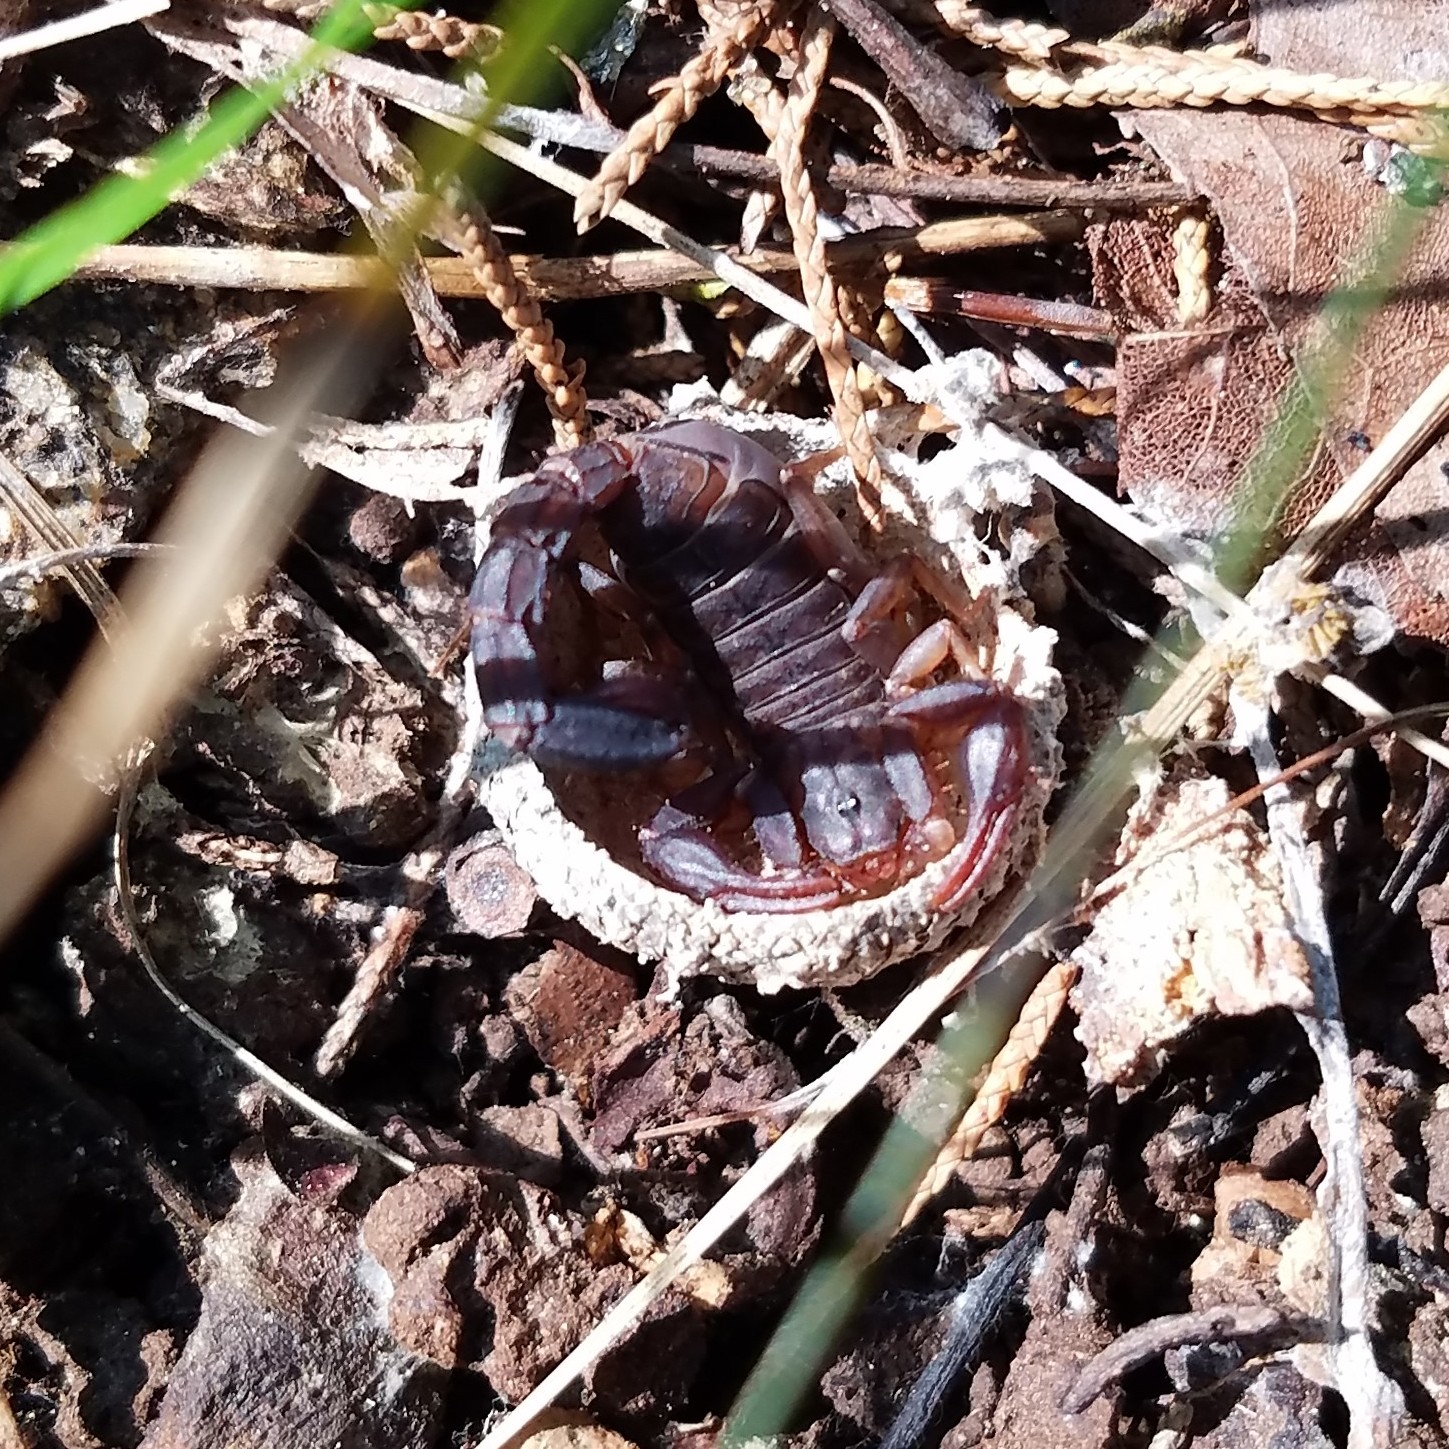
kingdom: Animalia
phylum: Arthropoda
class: Arachnida
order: Scorpiones
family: Vaejovidae
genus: Vaejovis
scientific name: Vaejovis carolinianus
